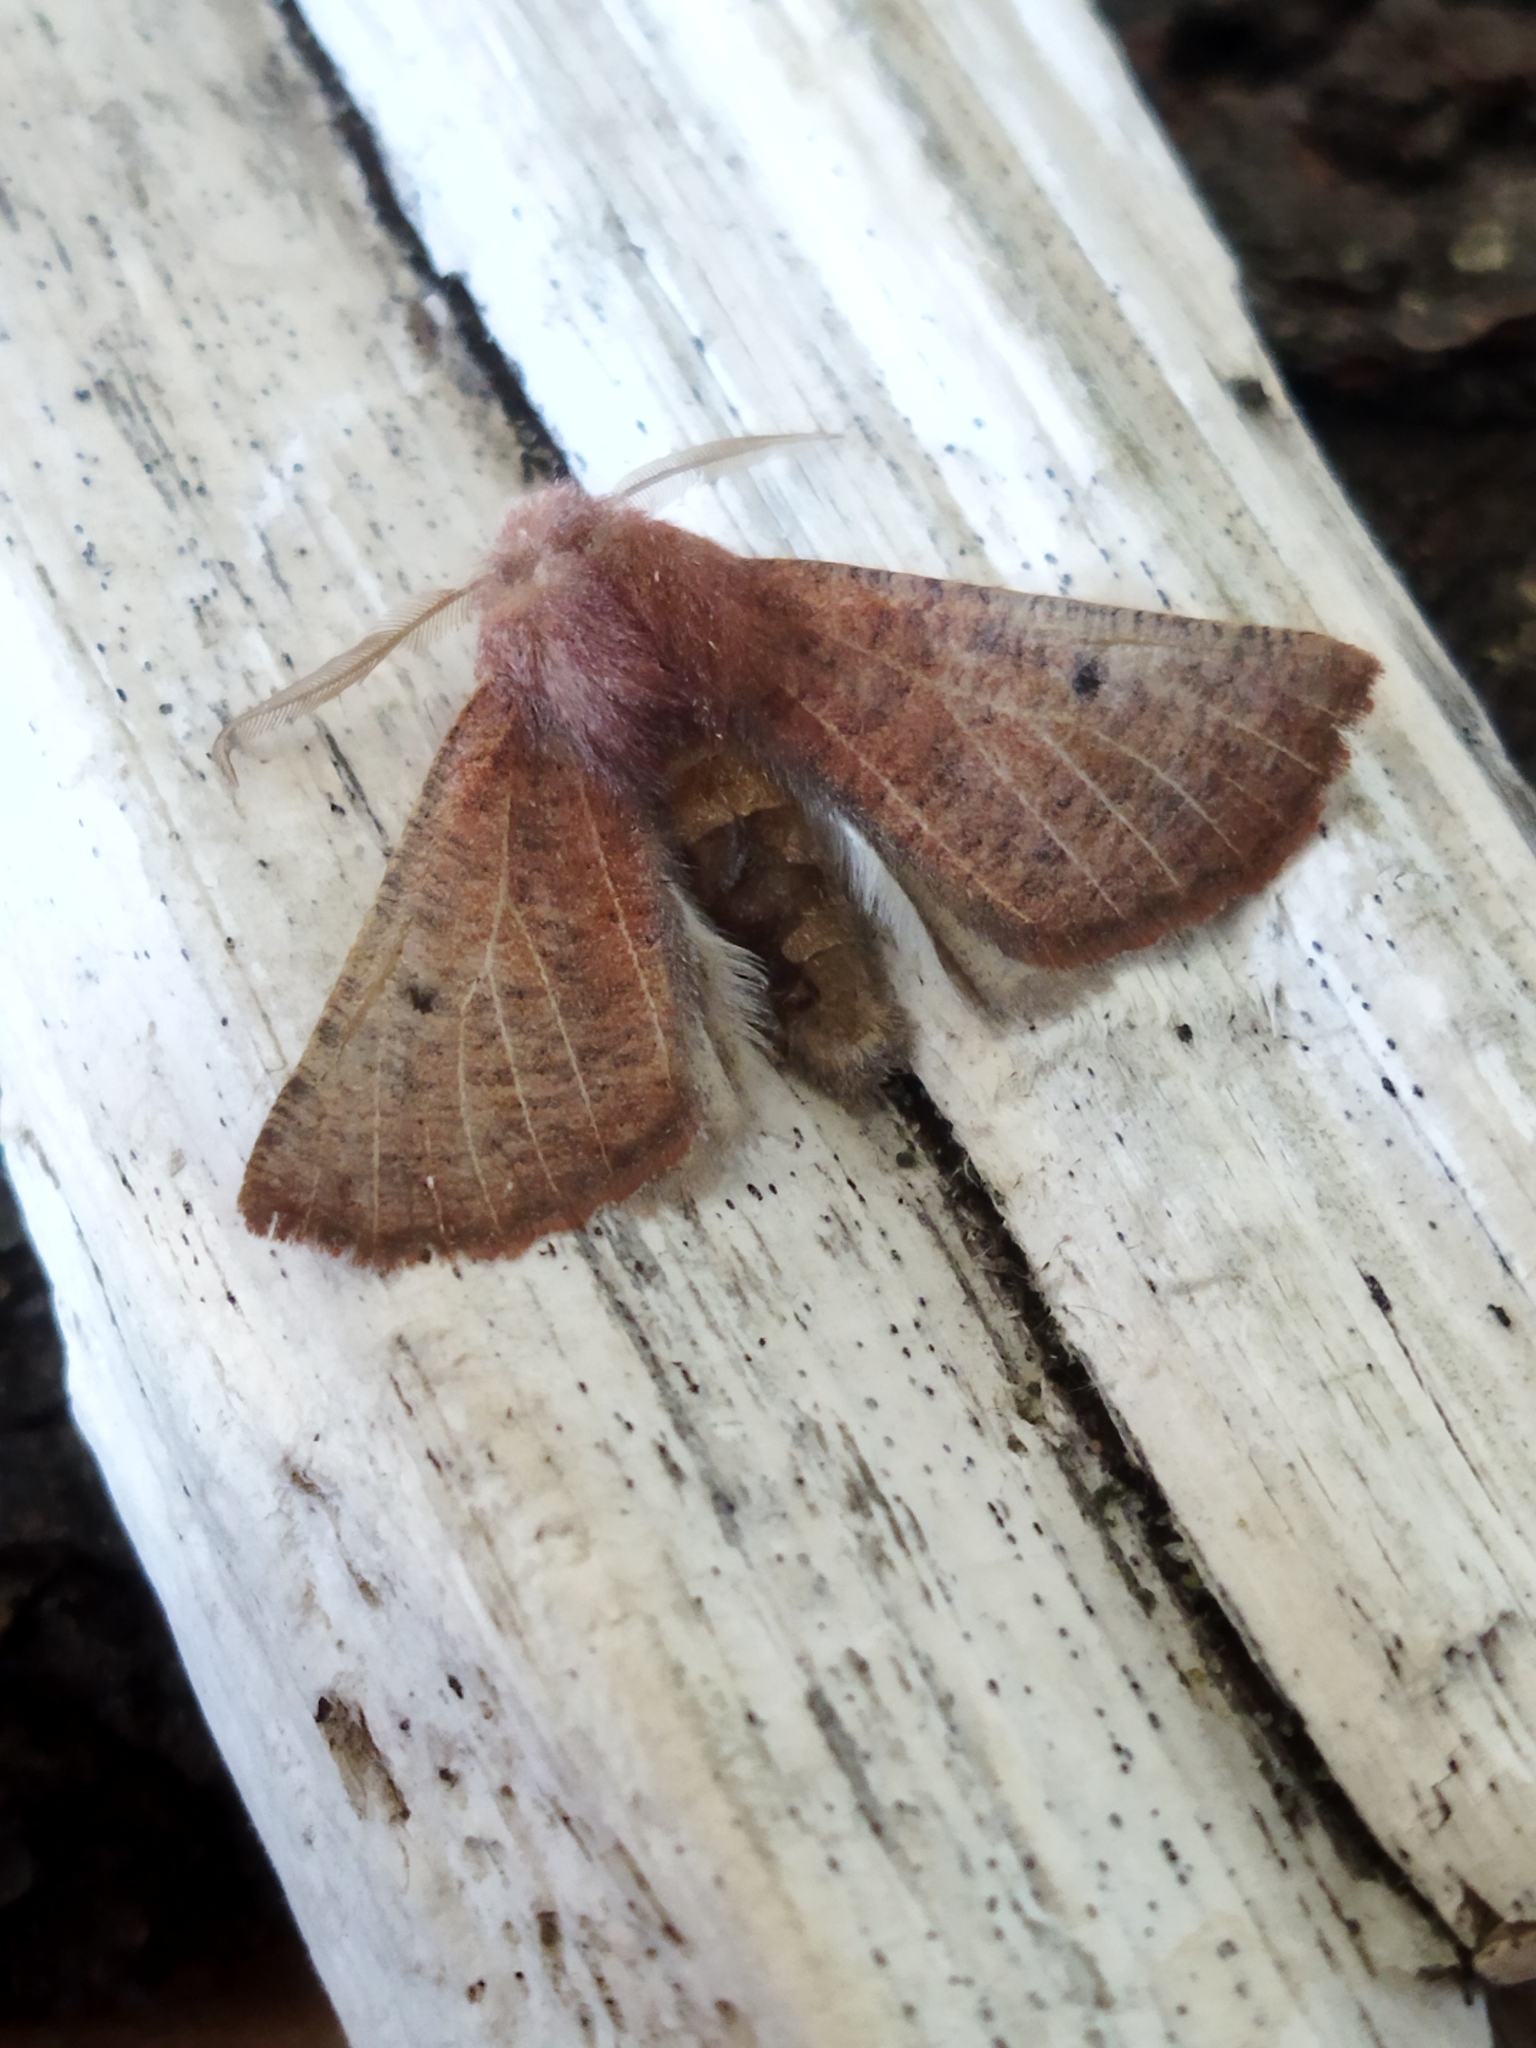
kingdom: Animalia
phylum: Arthropoda
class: Insecta
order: Lepidoptera
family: Geometridae
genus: Dasycorsa
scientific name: Dasycorsa modesta
